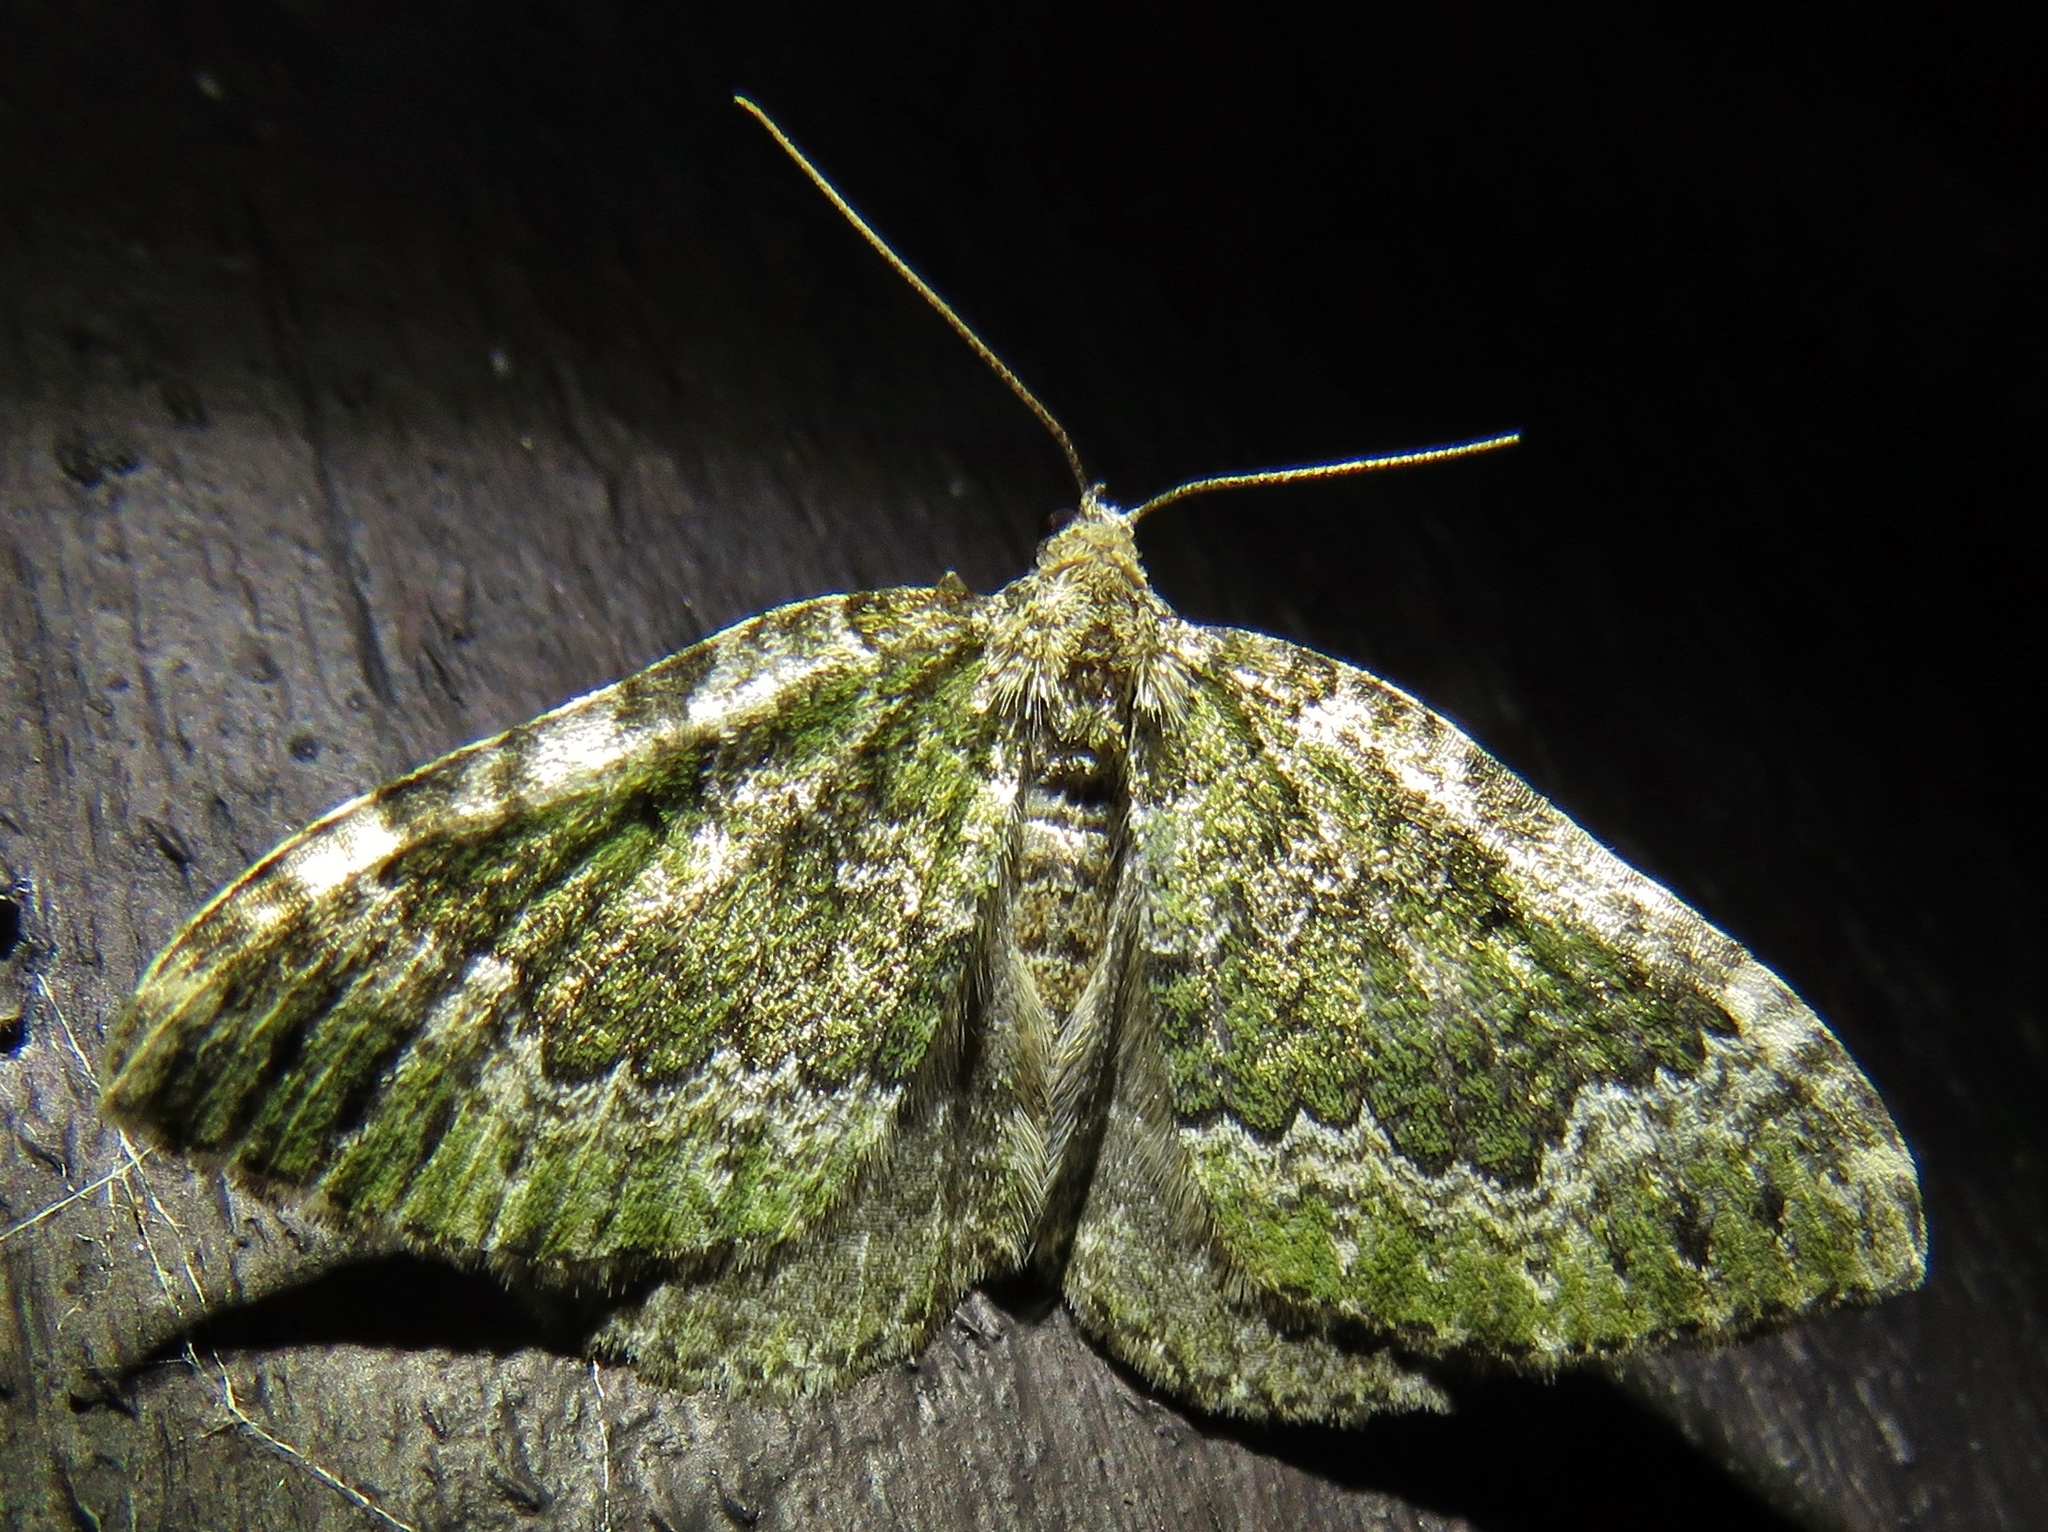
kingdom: Animalia
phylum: Arthropoda
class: Insecta
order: Lepidoptera
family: Geometridae
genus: Colostygia
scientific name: Colostygia olivata
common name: Beech-green carpet
